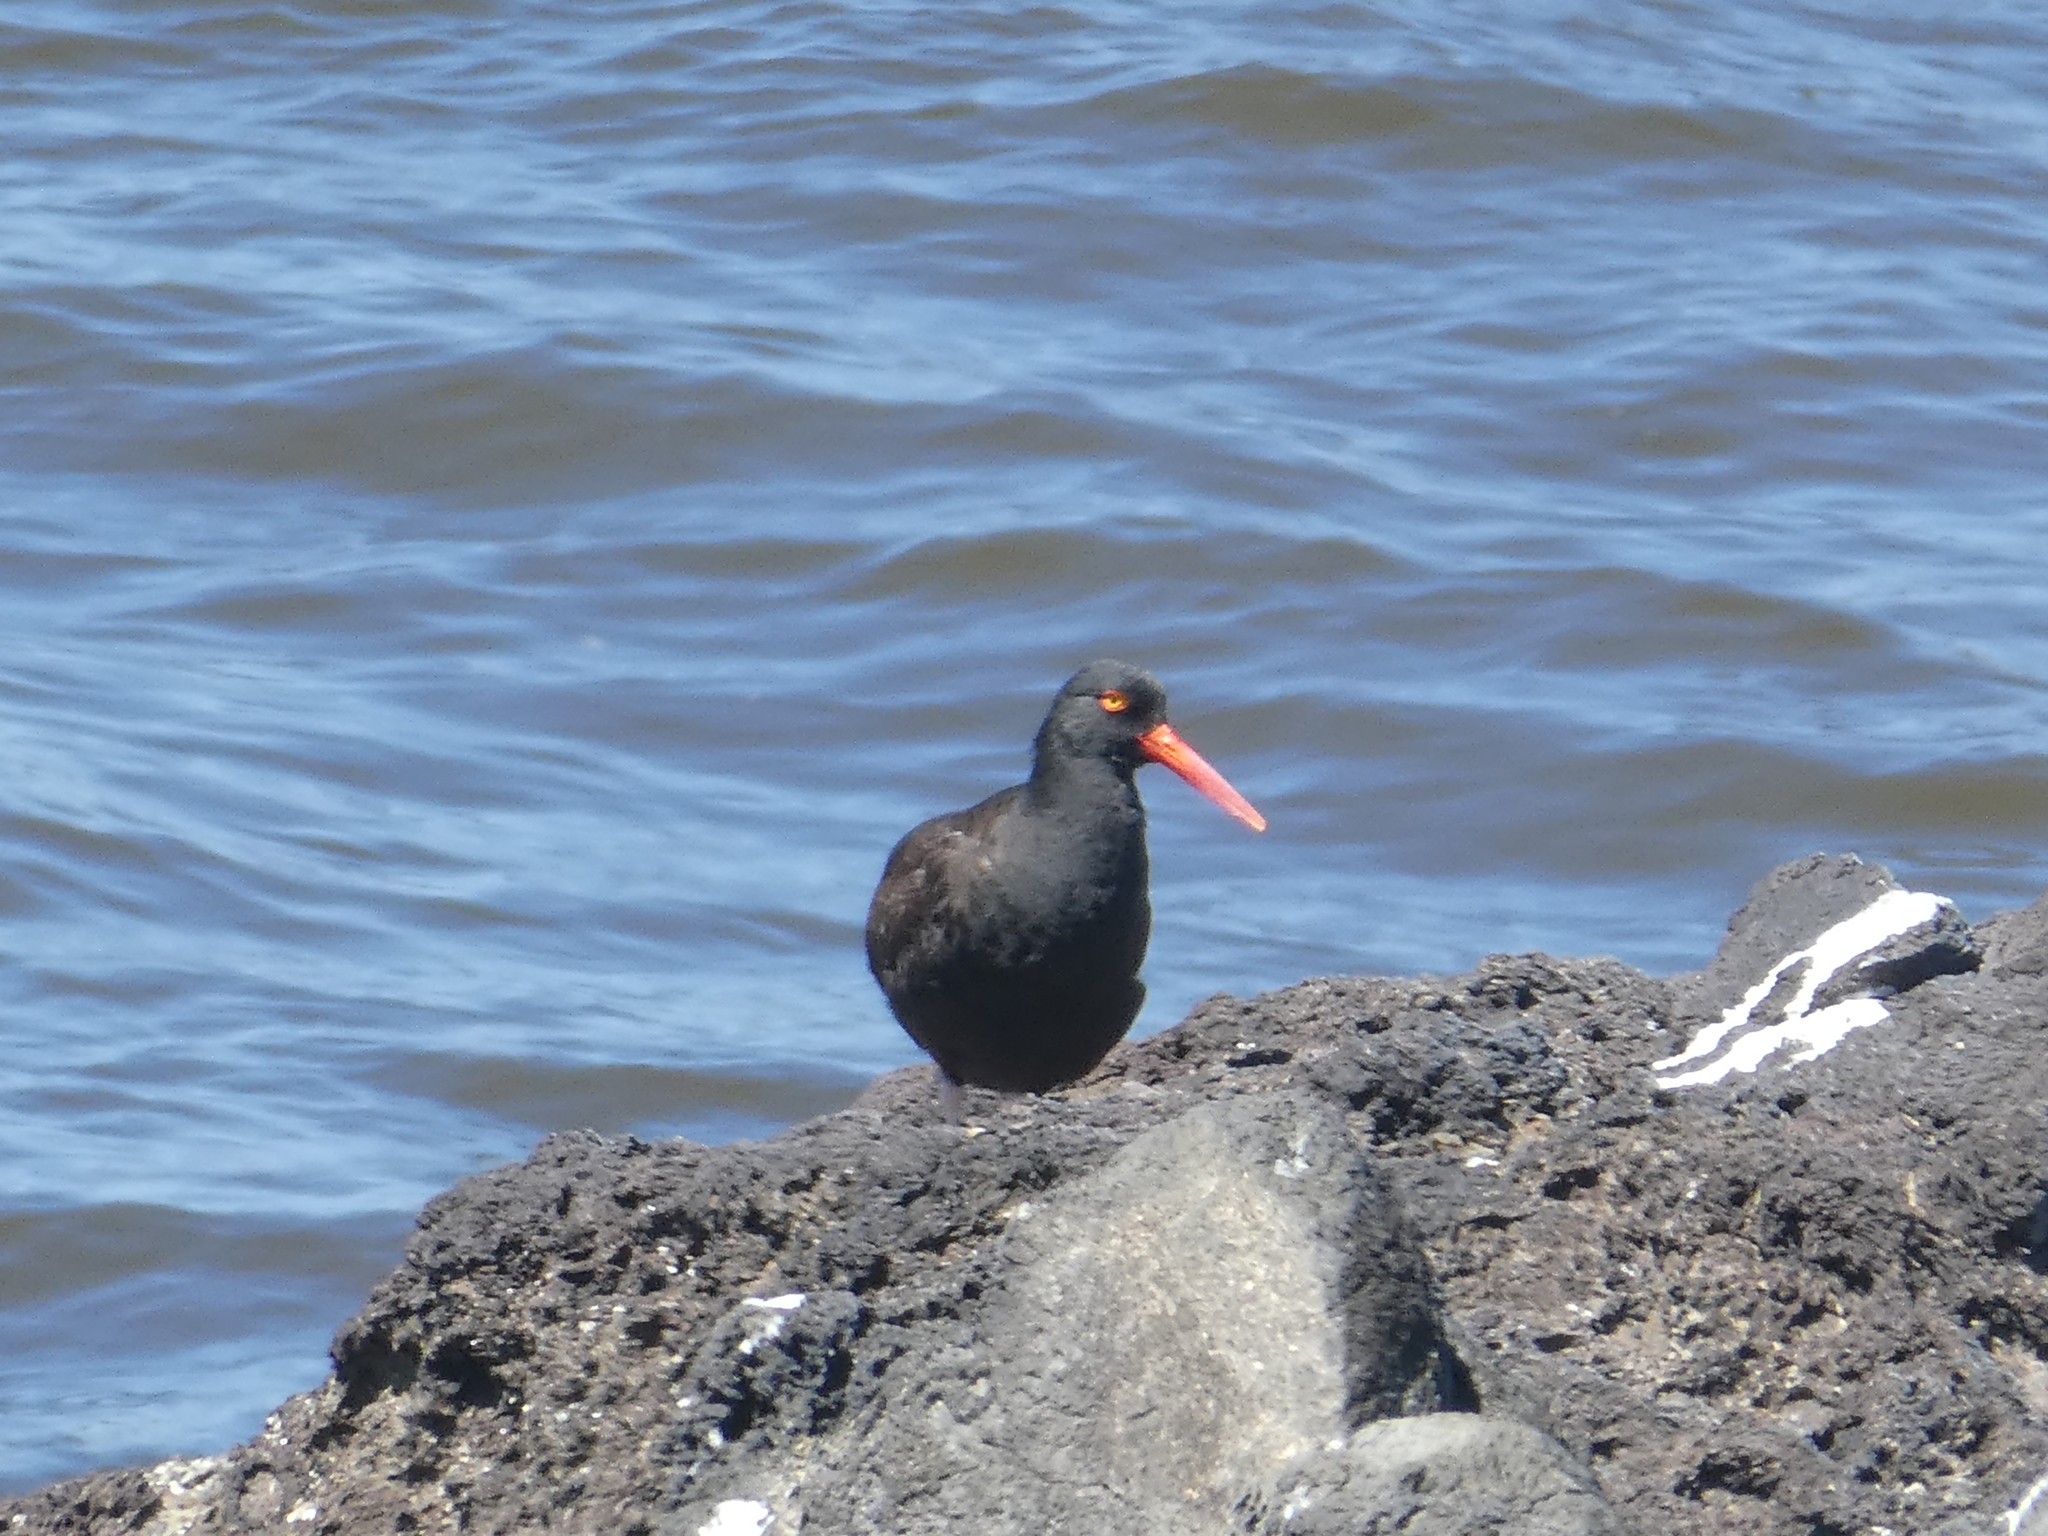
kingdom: Animalia
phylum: Chordata
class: Aves
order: Charadriiformes
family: Haematopodidae
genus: Haematopus
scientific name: Haematopus bachmani
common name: Black oystercatcher
